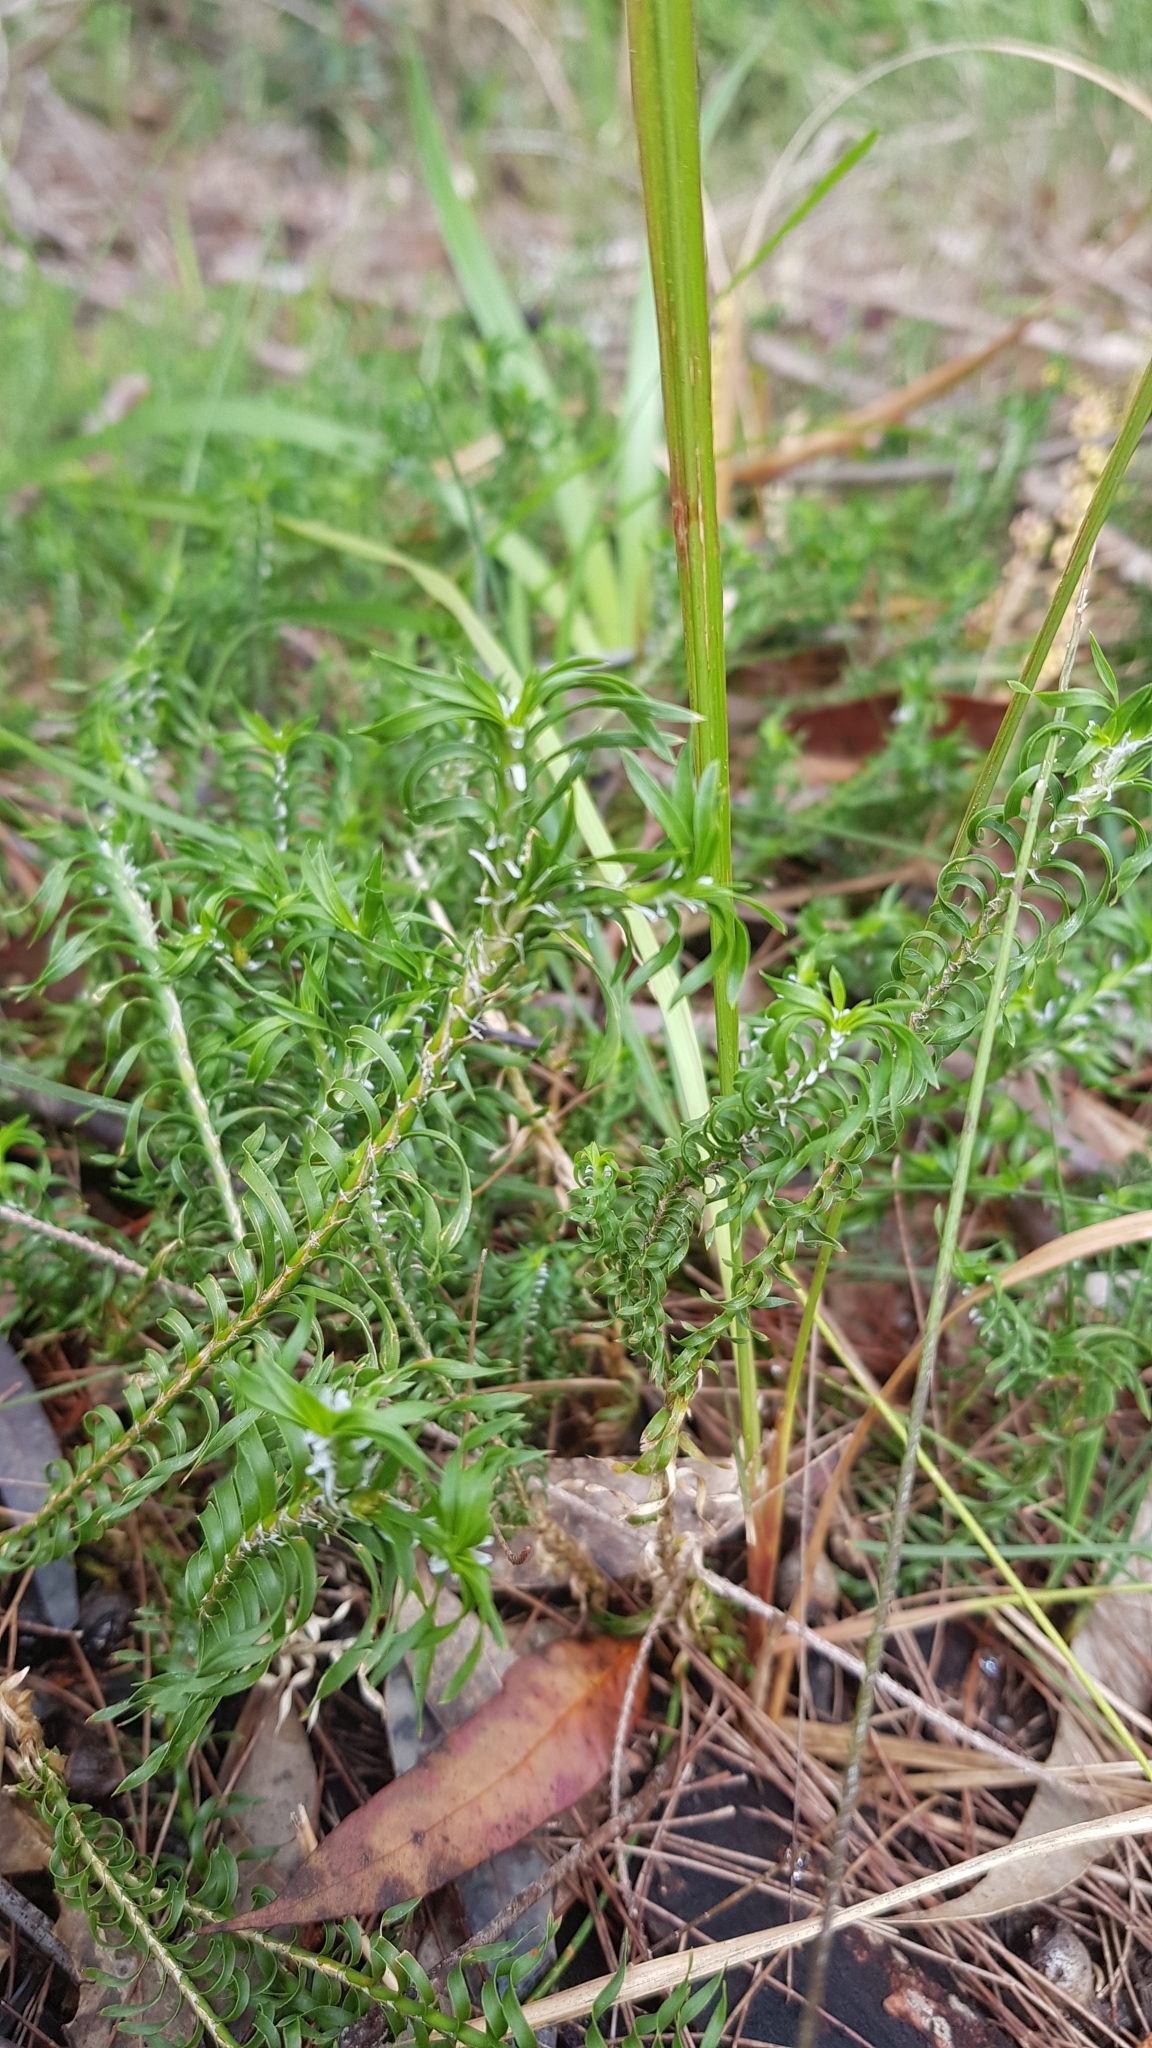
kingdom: Plantae
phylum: Tracheophyta
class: Liliopsida
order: Asparagales
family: Asparagaceae
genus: Lomandra
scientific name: Lomandra obliqua
